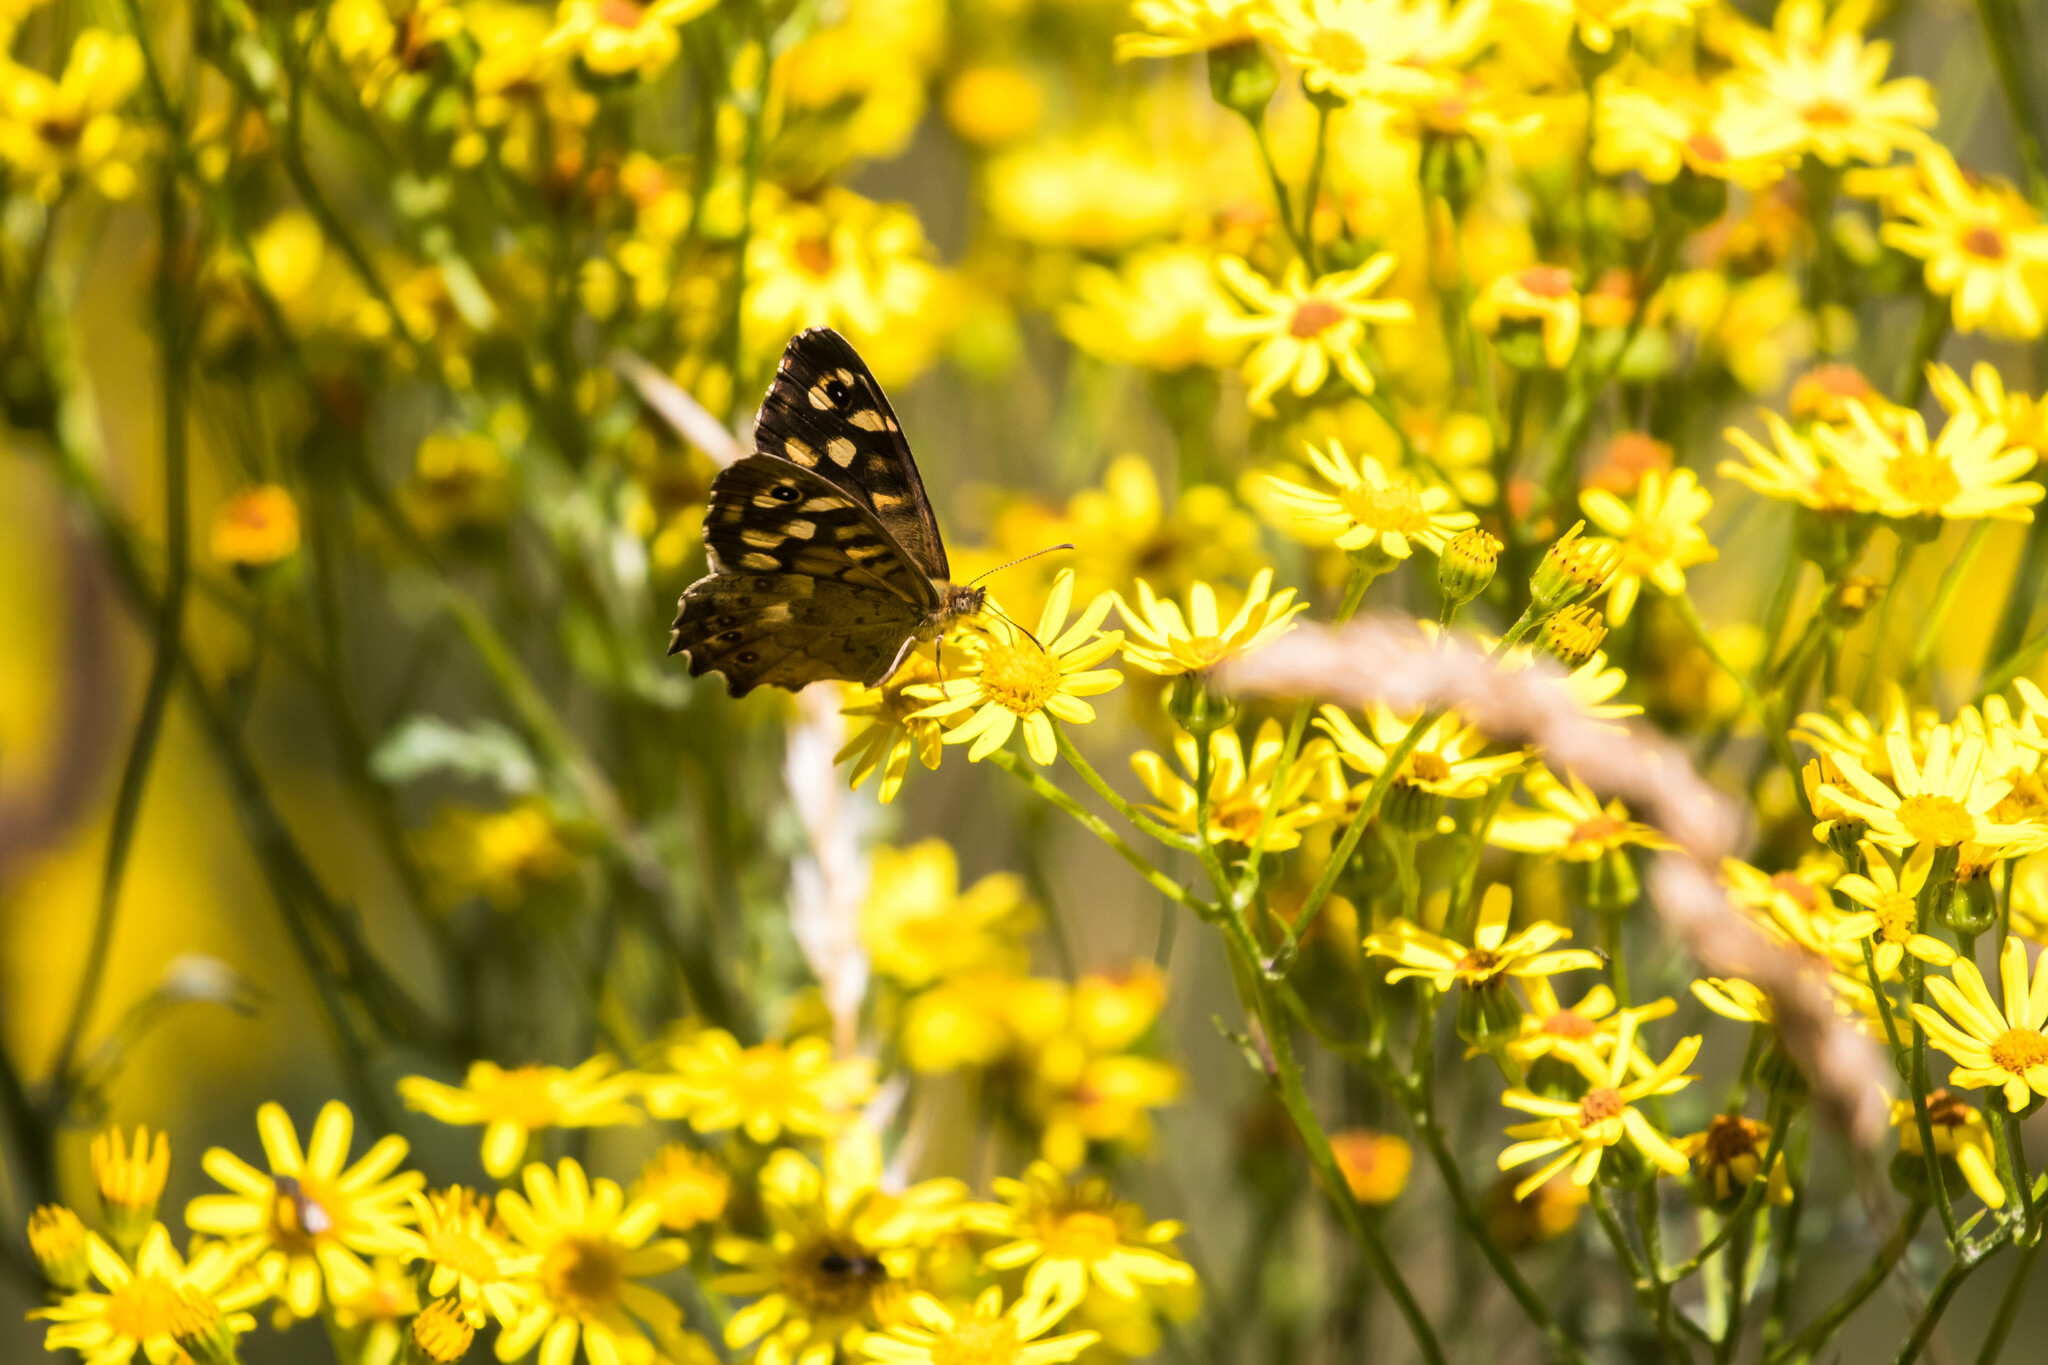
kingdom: Animalia
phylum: Arthropoda
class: Insecta
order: Lepidoptera
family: Nymphalidae
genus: Pararge
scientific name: Pararge aegeria
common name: Speckled wood
